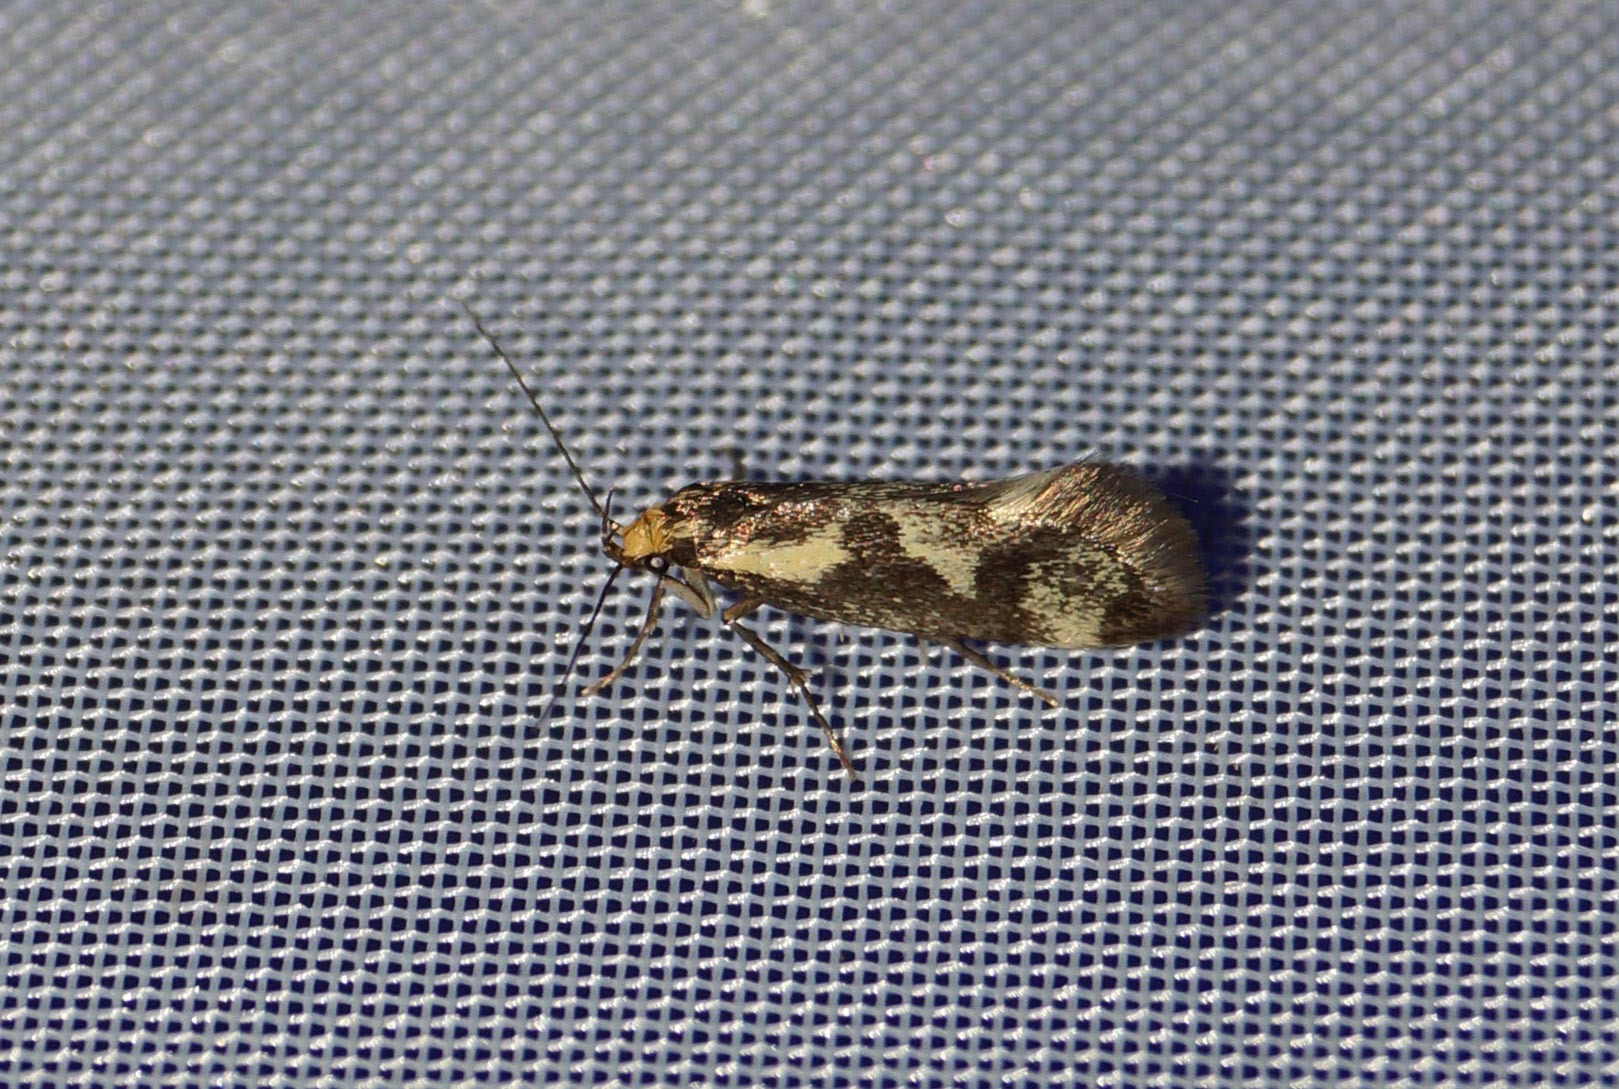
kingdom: Animalia
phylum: Arthropoda
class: Insecta
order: Lepidoptera
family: Oecophoridae
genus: Denisia
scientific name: Denisia stipella
